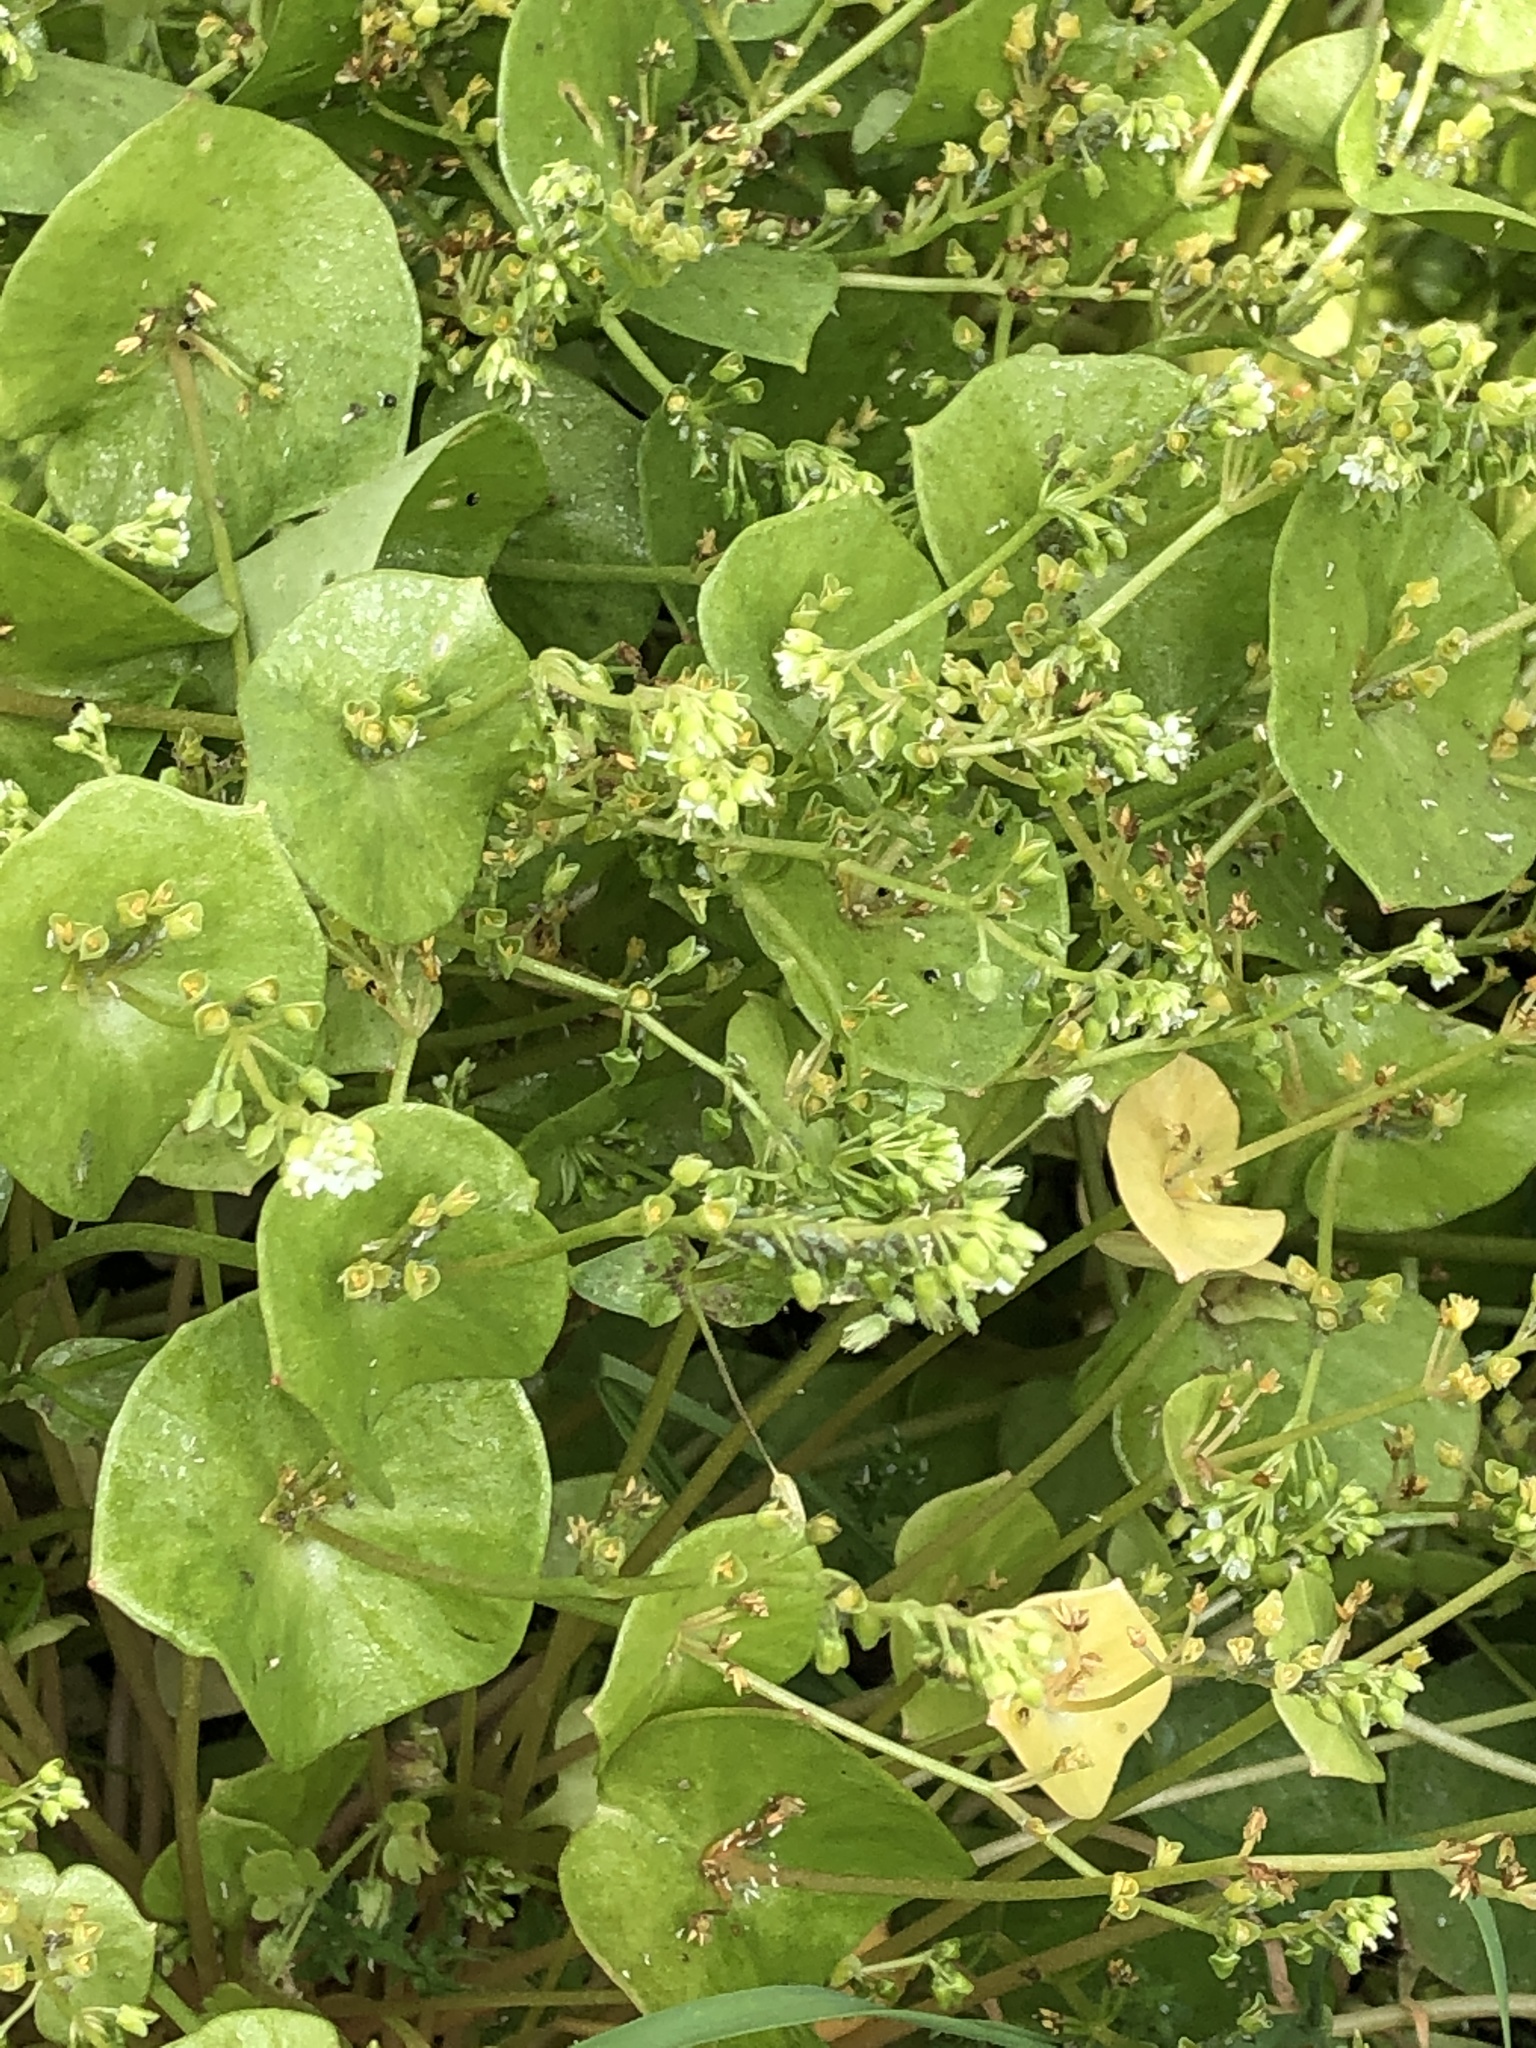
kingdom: Plantae
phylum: Tracheophyta
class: Magnoliopsida
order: Caryophyllales
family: Montiaceae
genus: Claytonia
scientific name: Claytonia perfoliata
